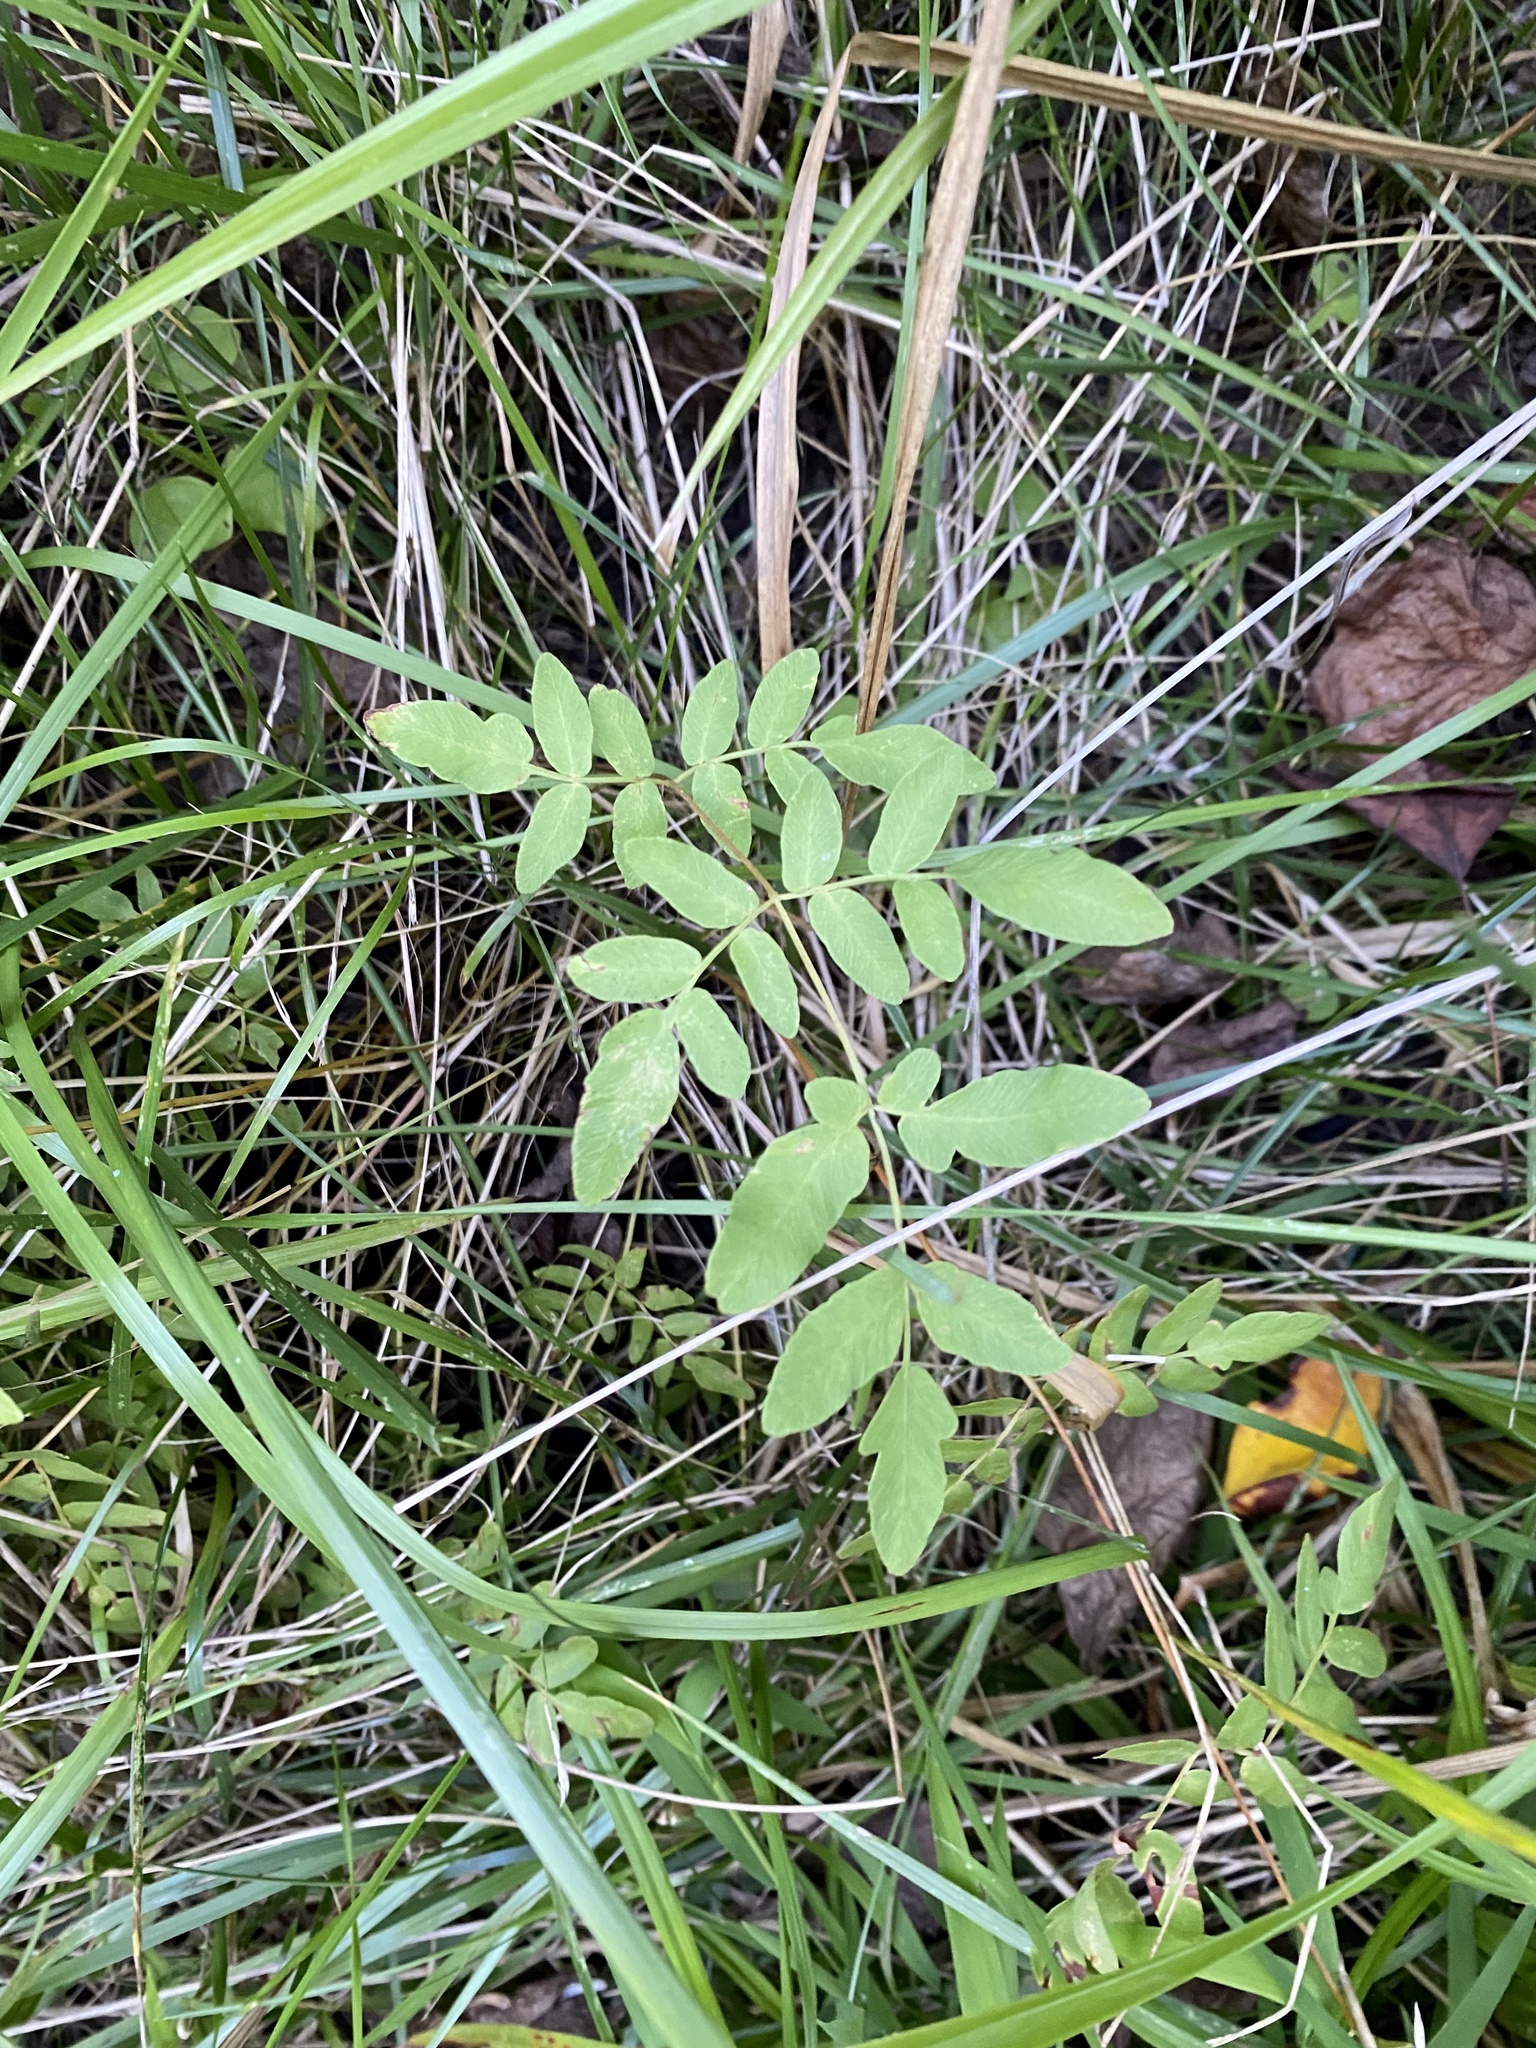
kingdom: Plantae
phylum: Tracheophyta
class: Polypodiopsida
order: Osmundales
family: Osmundaceae
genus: Osmunda
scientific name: Osmunda spectabilis
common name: American royal fern
